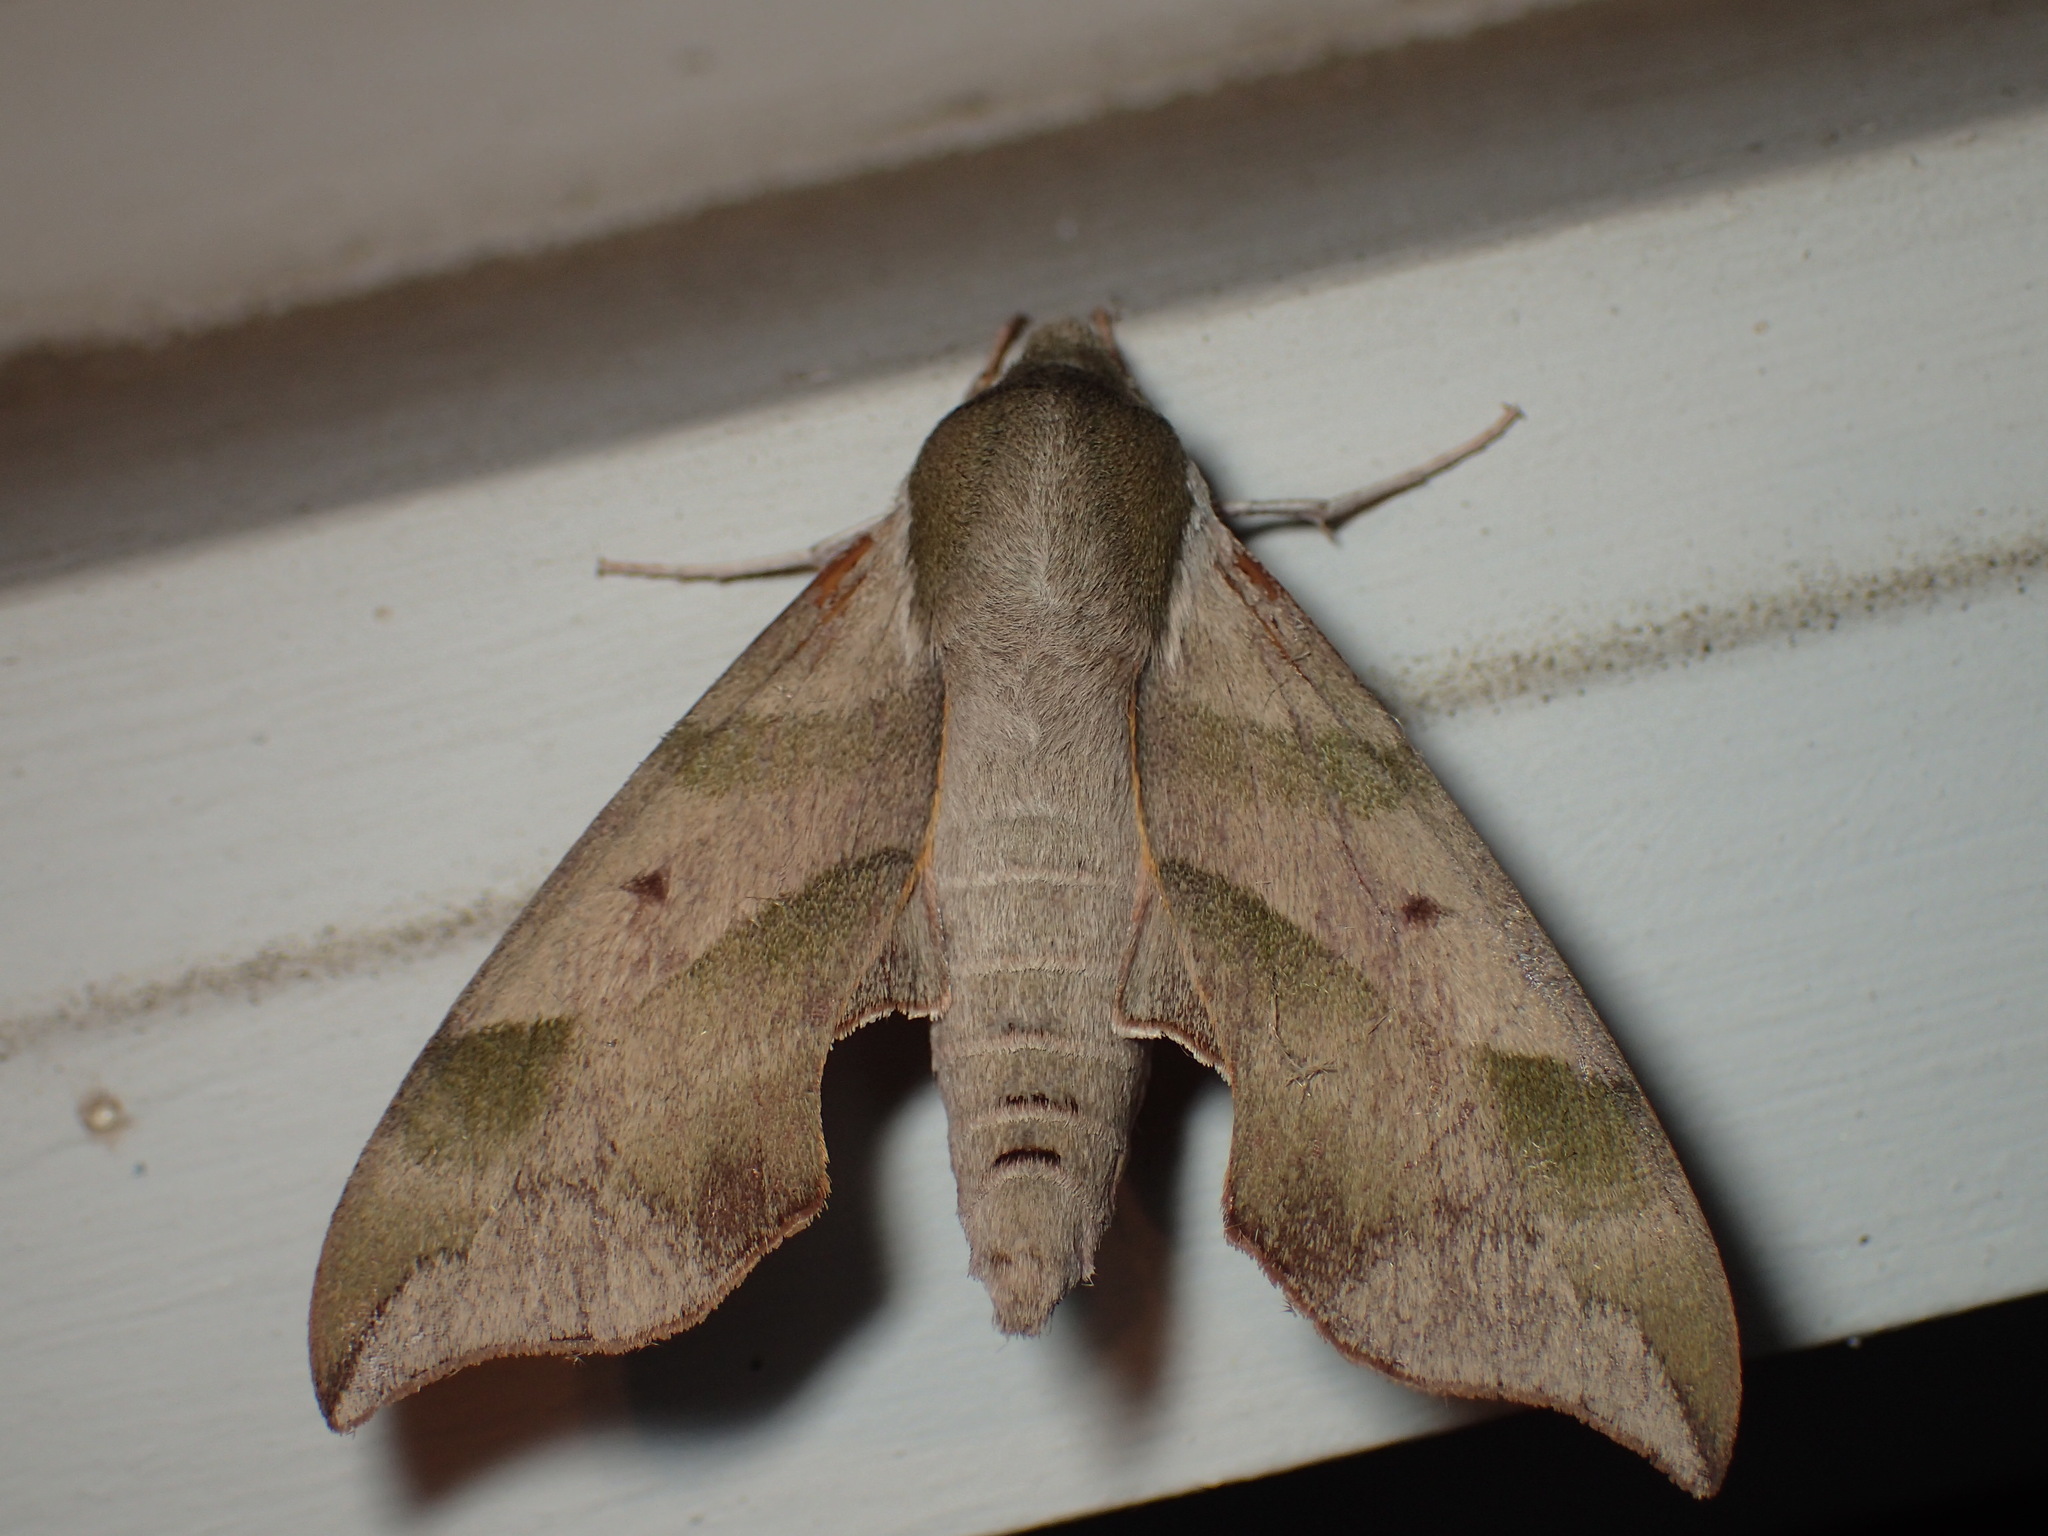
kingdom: Animalia
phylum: Arthropoda
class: Insecta
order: Lepidoptera
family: Sphingidae
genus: Darapsa
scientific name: Darapsa myron
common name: Hog sphinx
